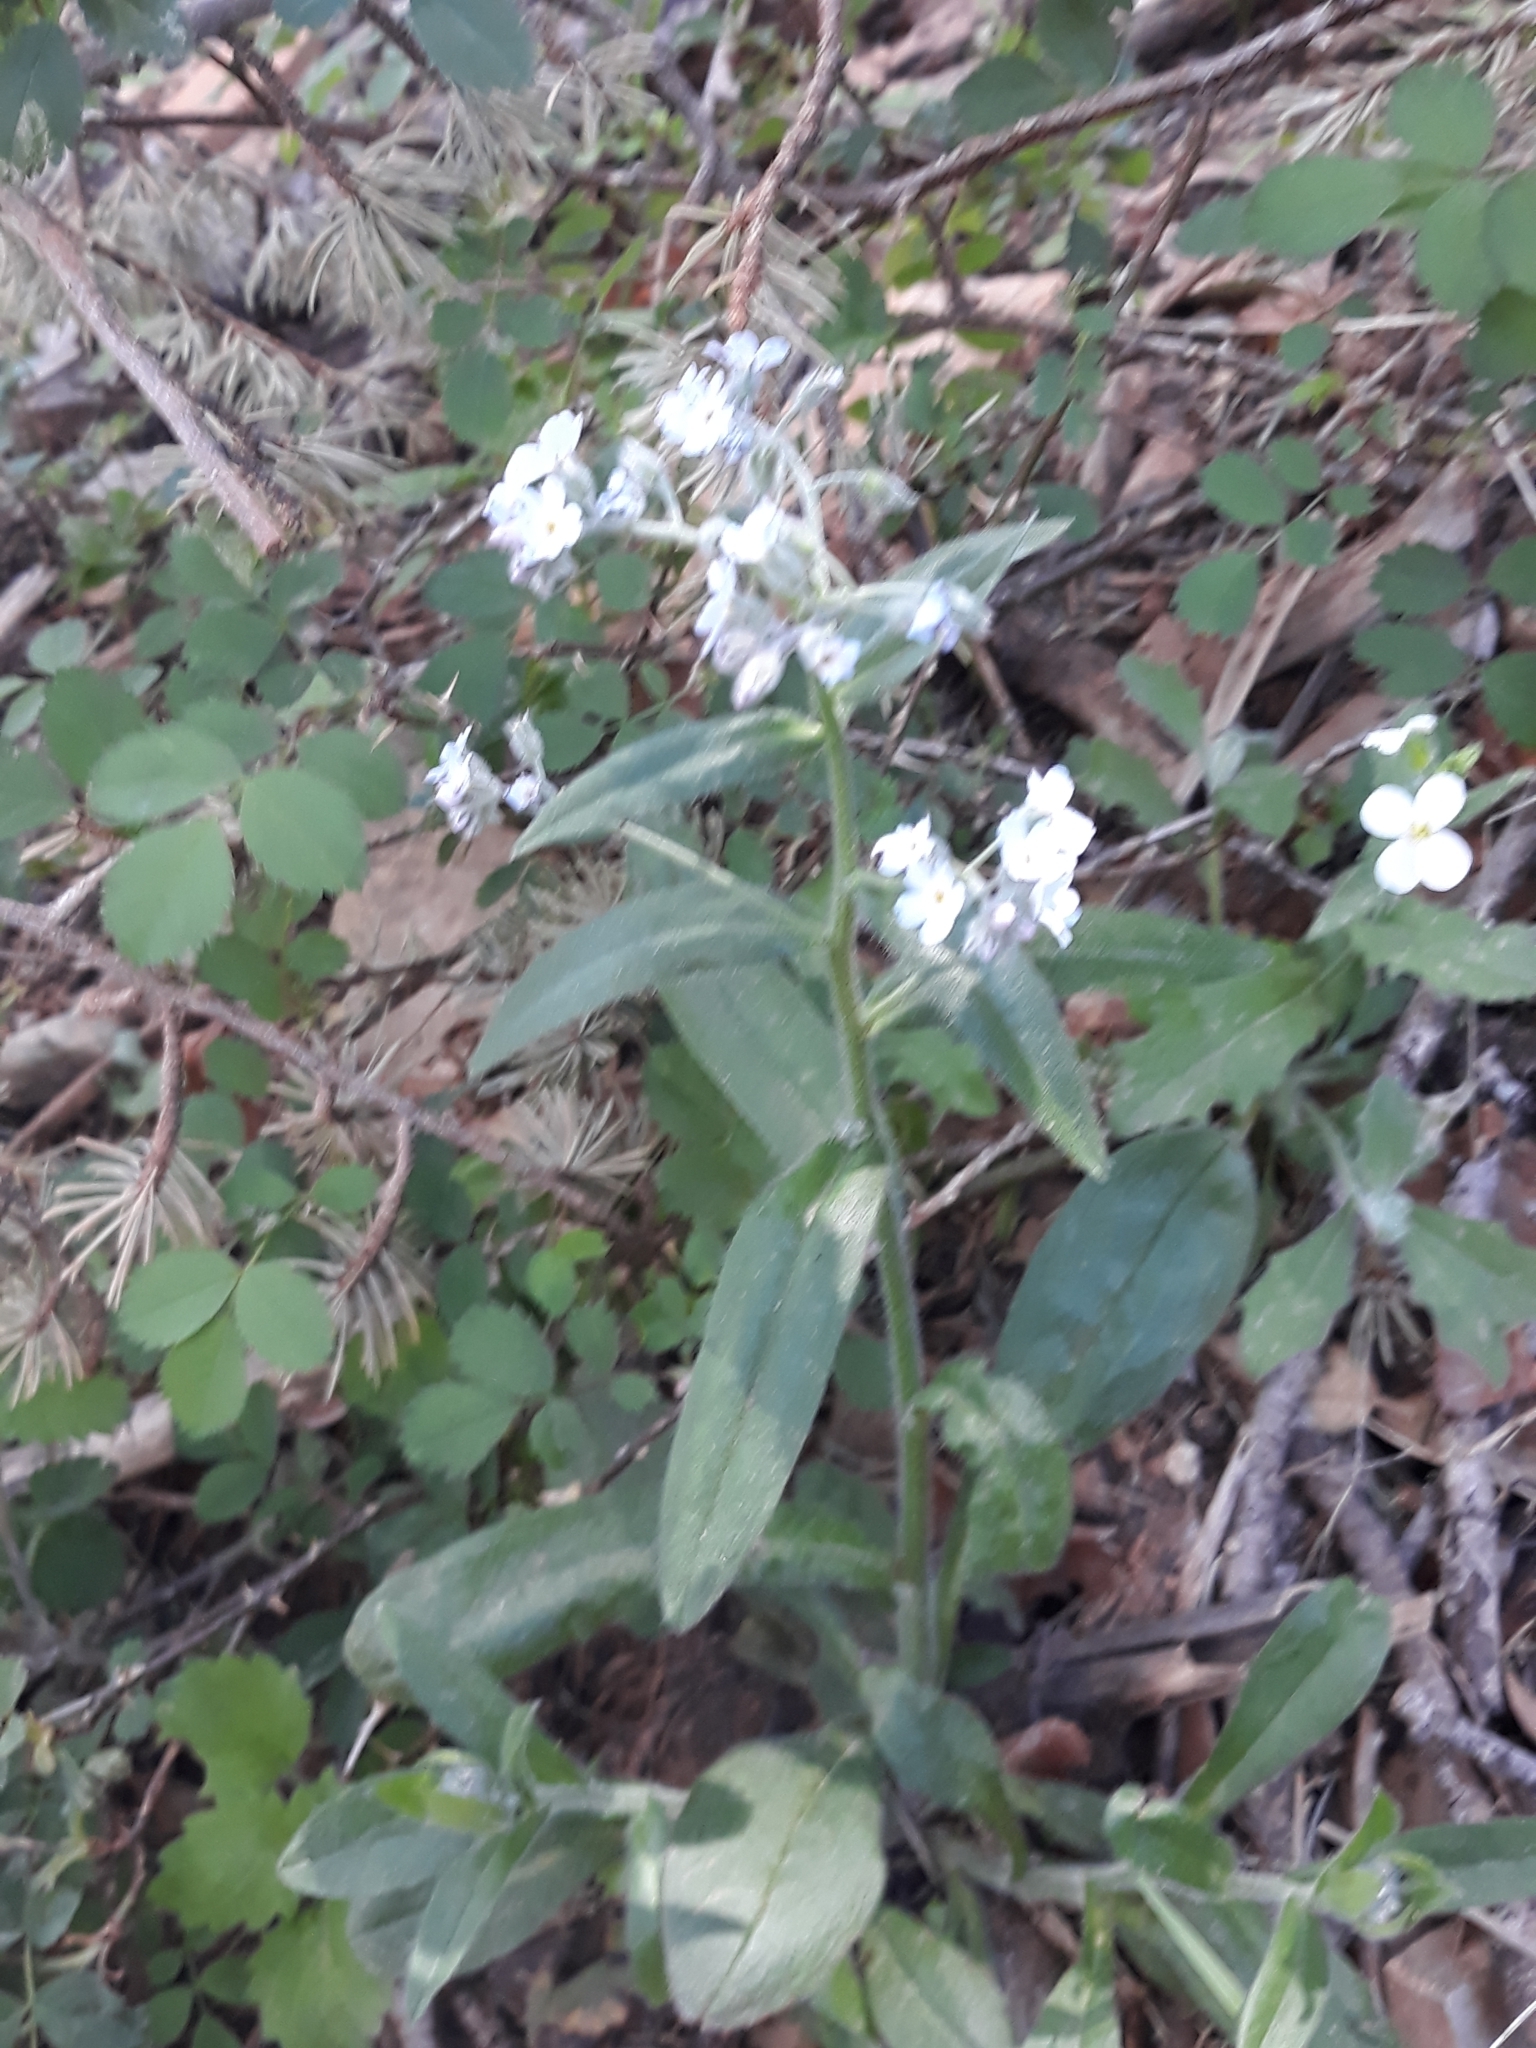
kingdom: Plantae
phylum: Tracheophyta
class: Magnoliopsida
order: Boraginales
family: Boraginaceae
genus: Myosotis
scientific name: Myosotis speciosa
